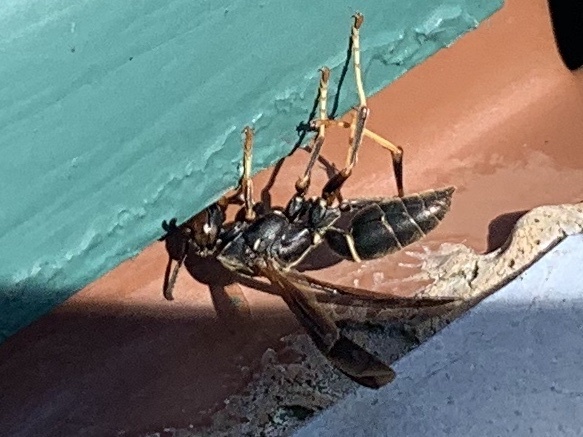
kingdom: Animalia
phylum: Arthropoda
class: Insecta
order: Hymenoptera
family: Eumenidae
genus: Polistes
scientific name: Polistes fuscatus
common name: Dark paper wasp
